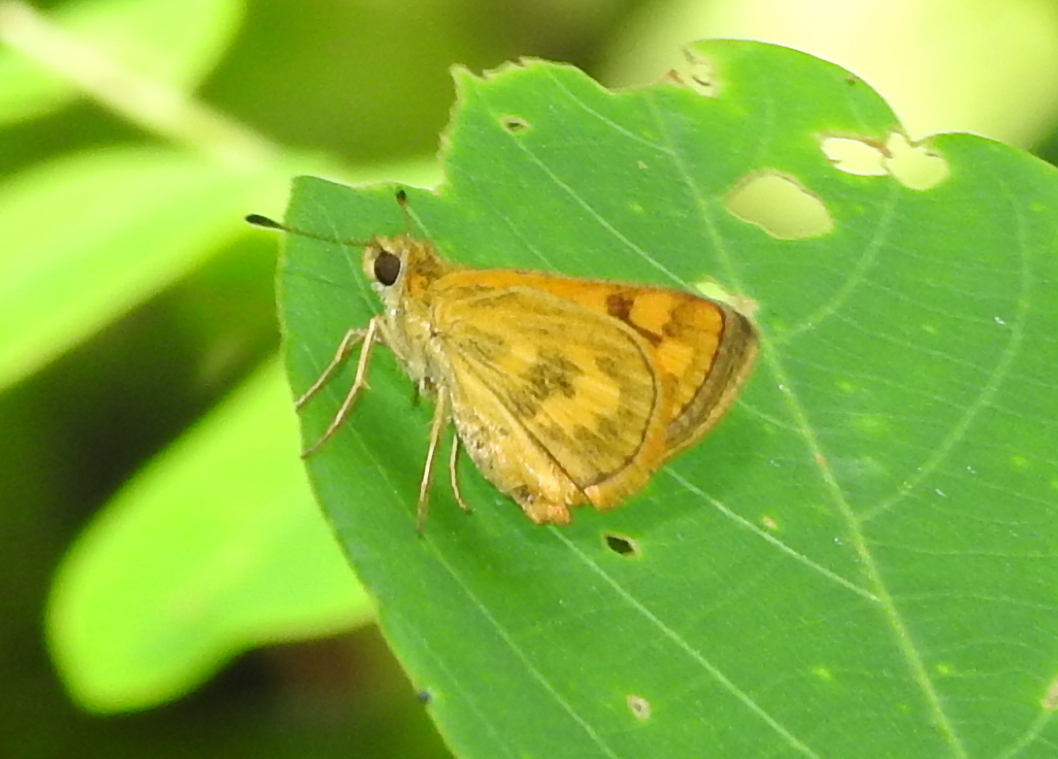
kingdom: Animalia
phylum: Arthropoda
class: Insecta
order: Lepidoptera
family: Hesperiidae
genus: Taractrocera
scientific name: Taractrocera archias
